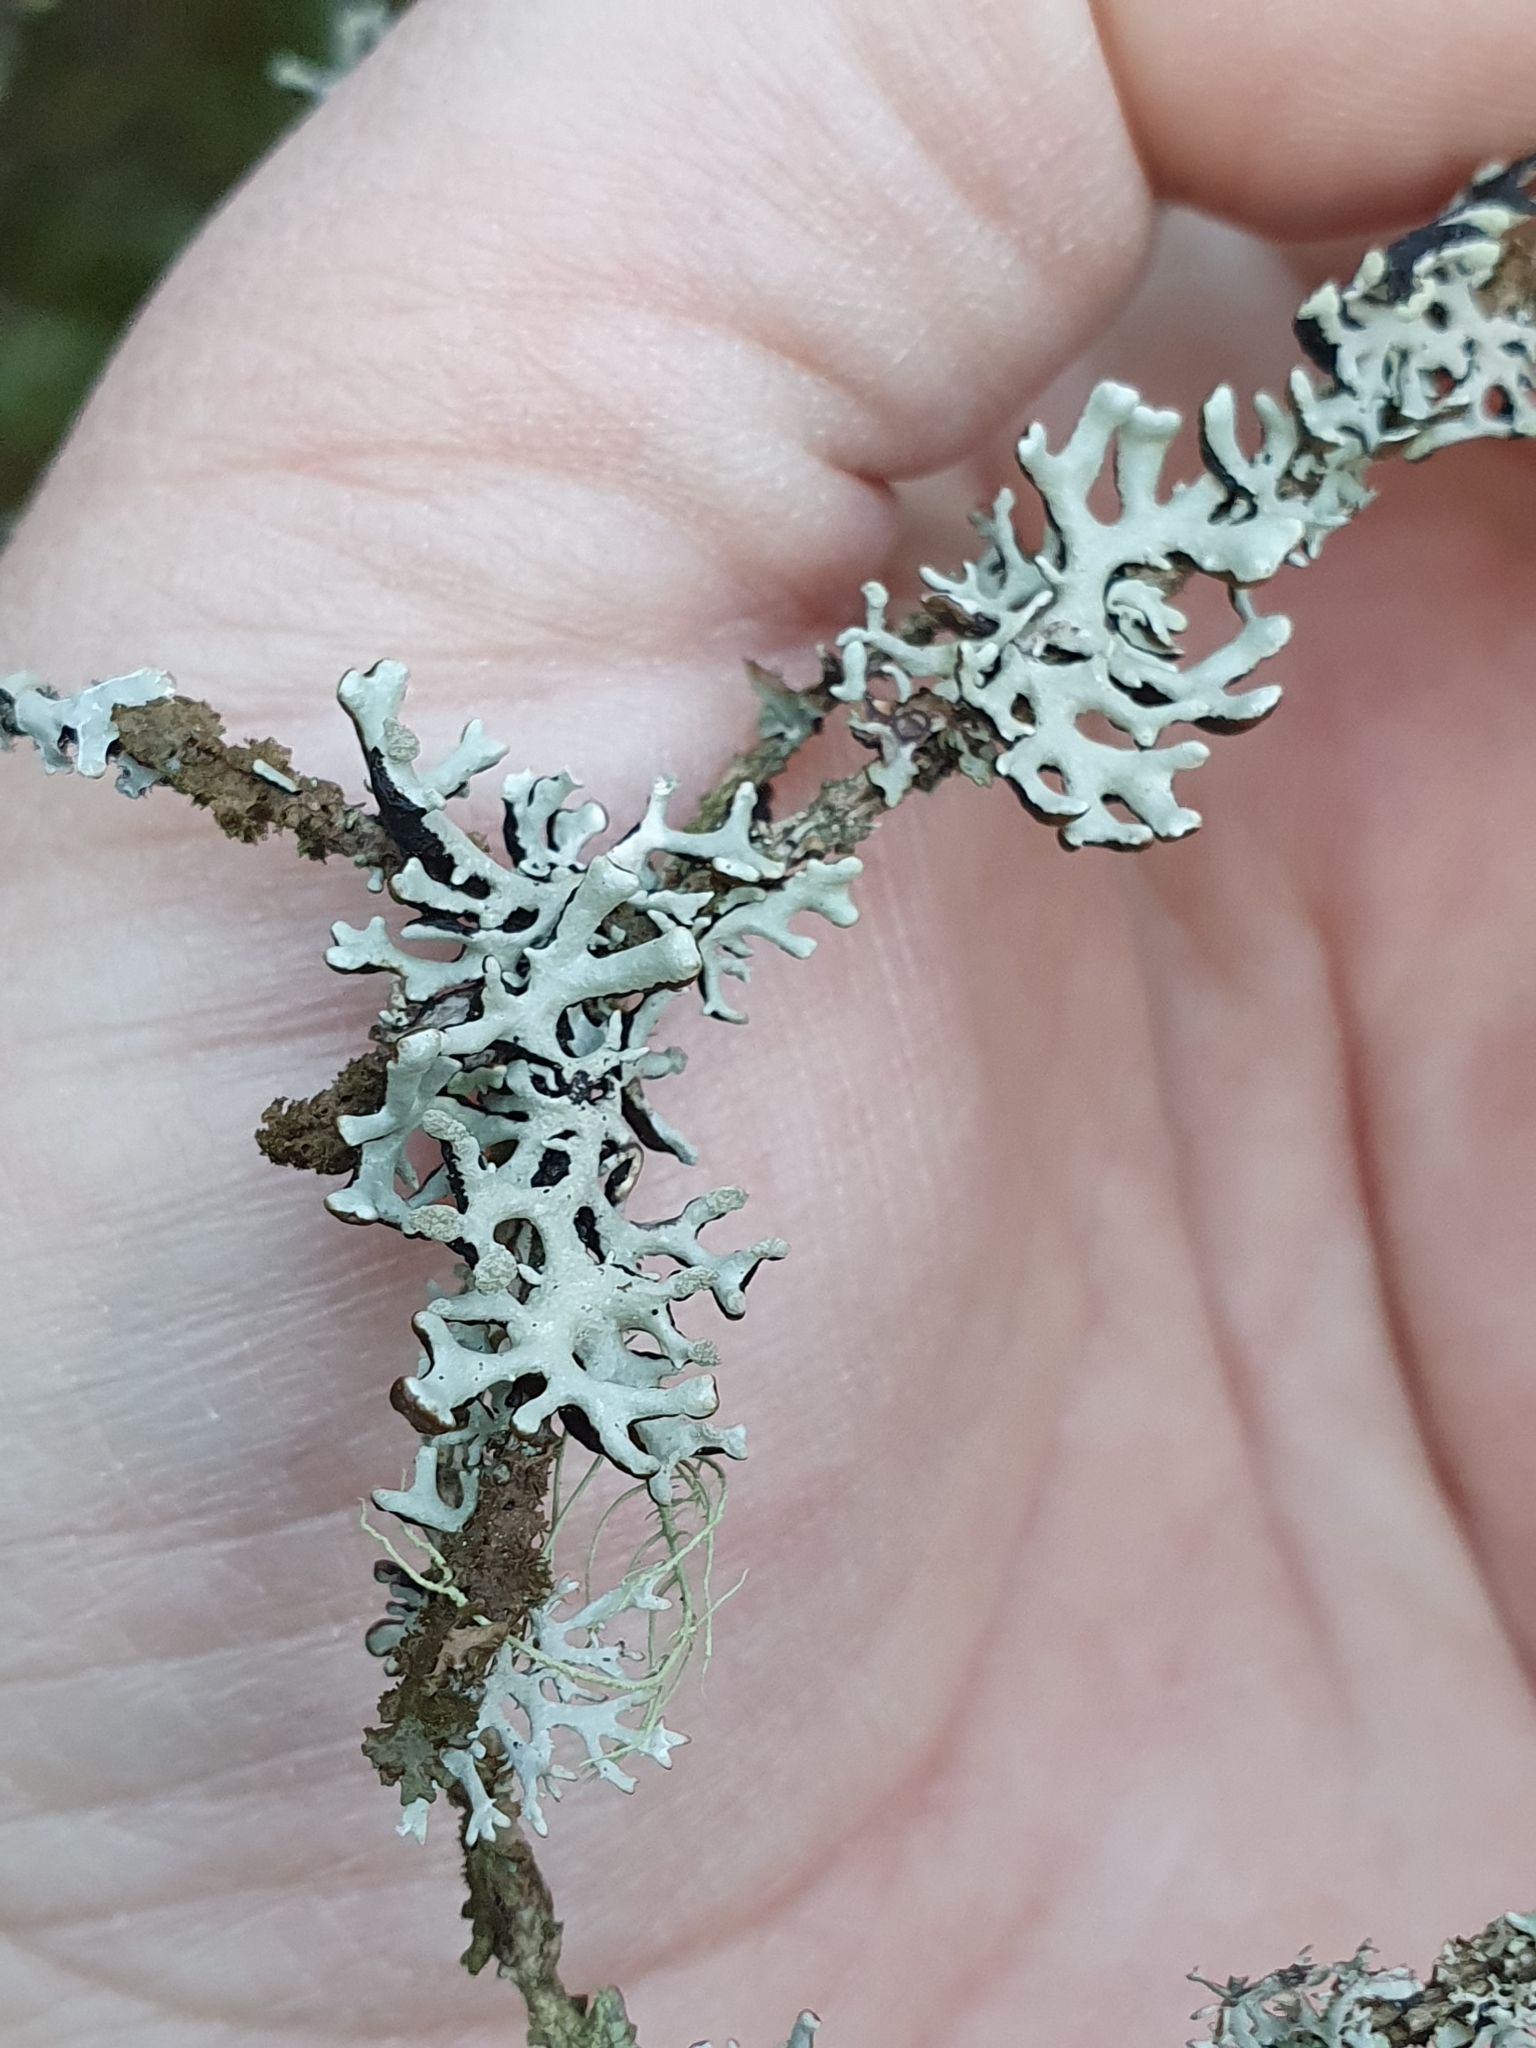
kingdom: Fungi
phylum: Ascomycota
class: Lecanoromycetes
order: Lecanorales
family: Parmeliaceae
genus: Hypogymnia
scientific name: Hypogymnia tubulosa
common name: Powder-headed tube lichen
